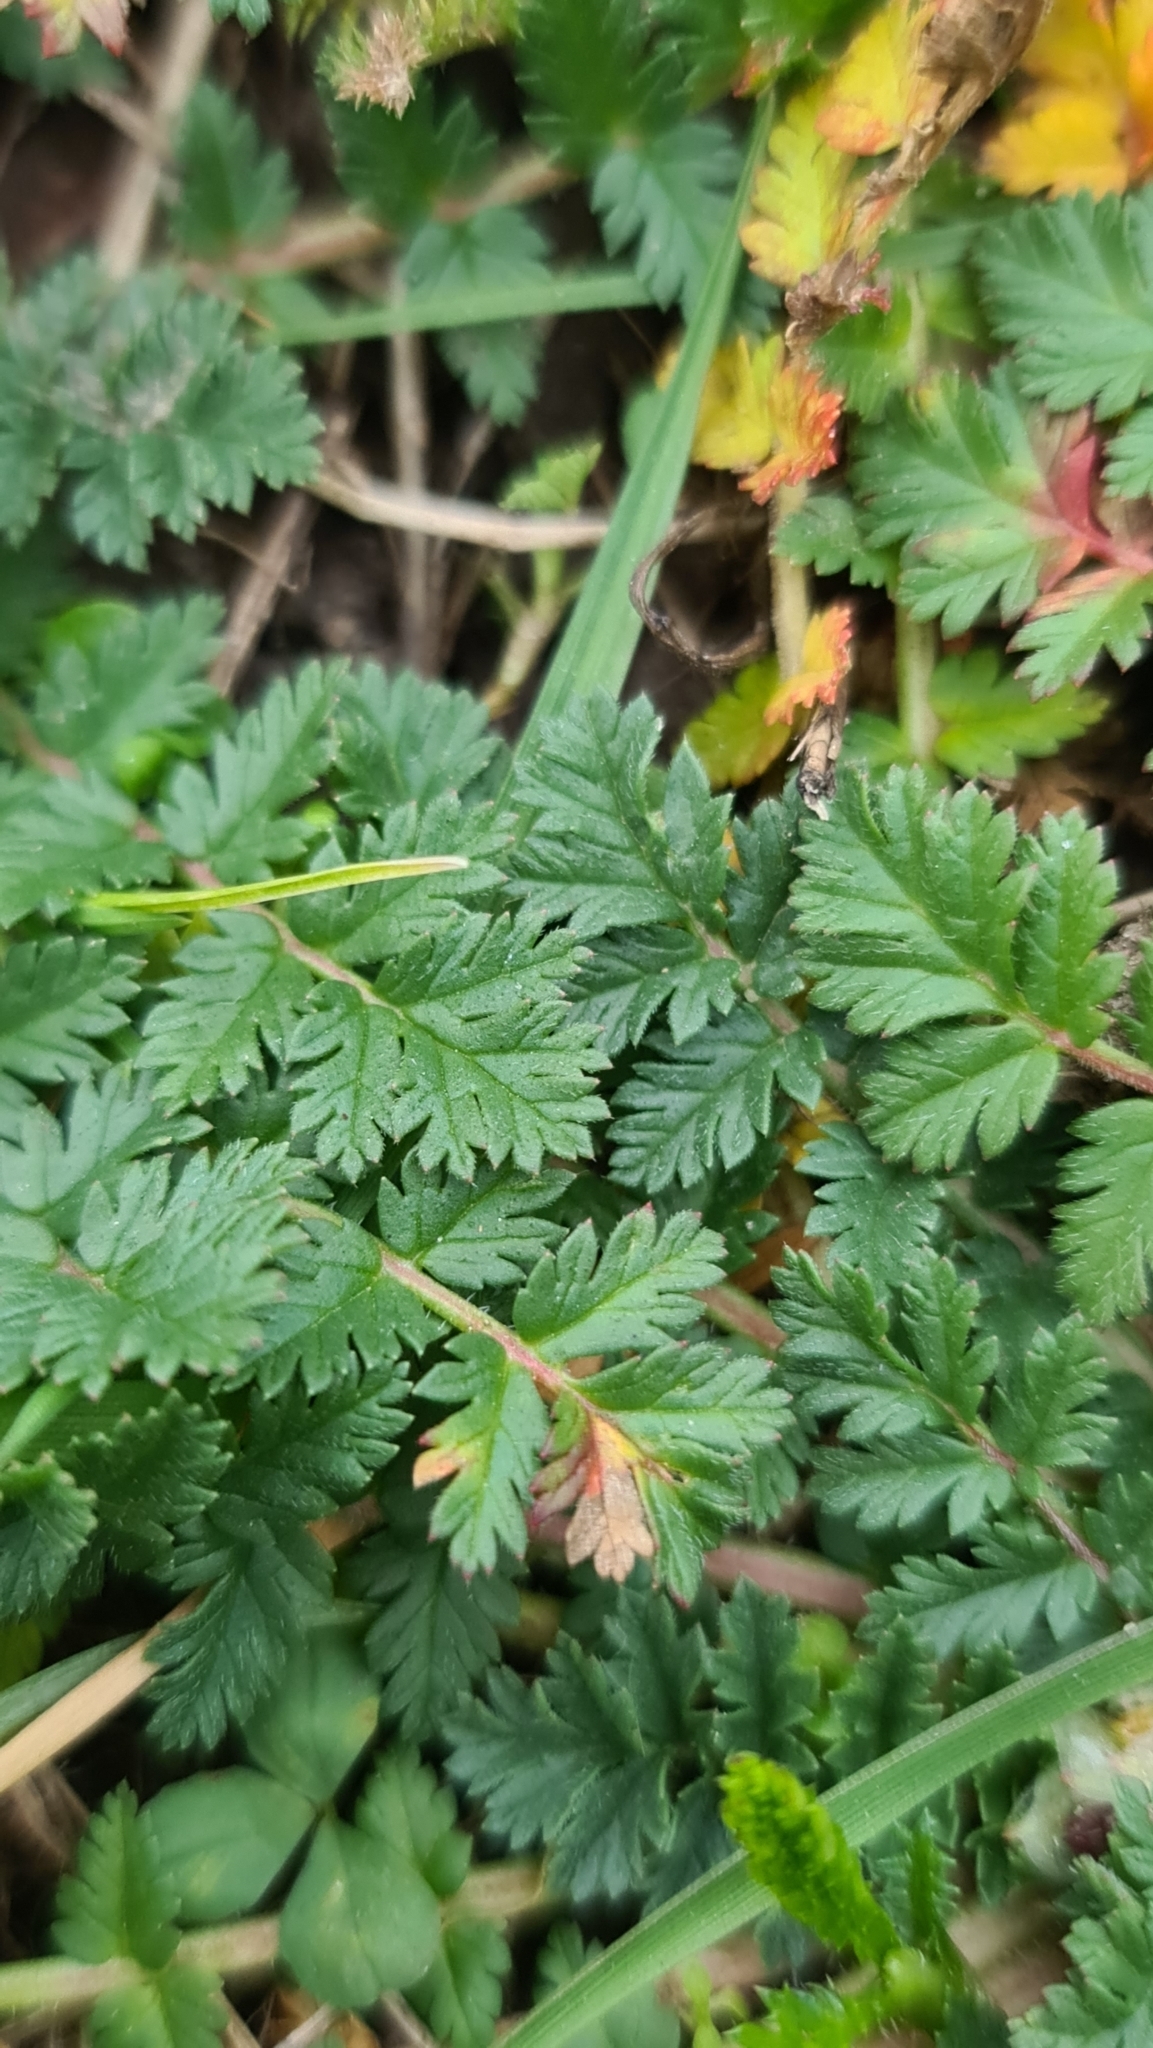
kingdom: Plantae
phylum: Tracheophyta
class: Magnoliopsida
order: Geraniales
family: Geraniaceae
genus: Erodium
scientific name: Erodium cicutarium
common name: Common stork's-bill
